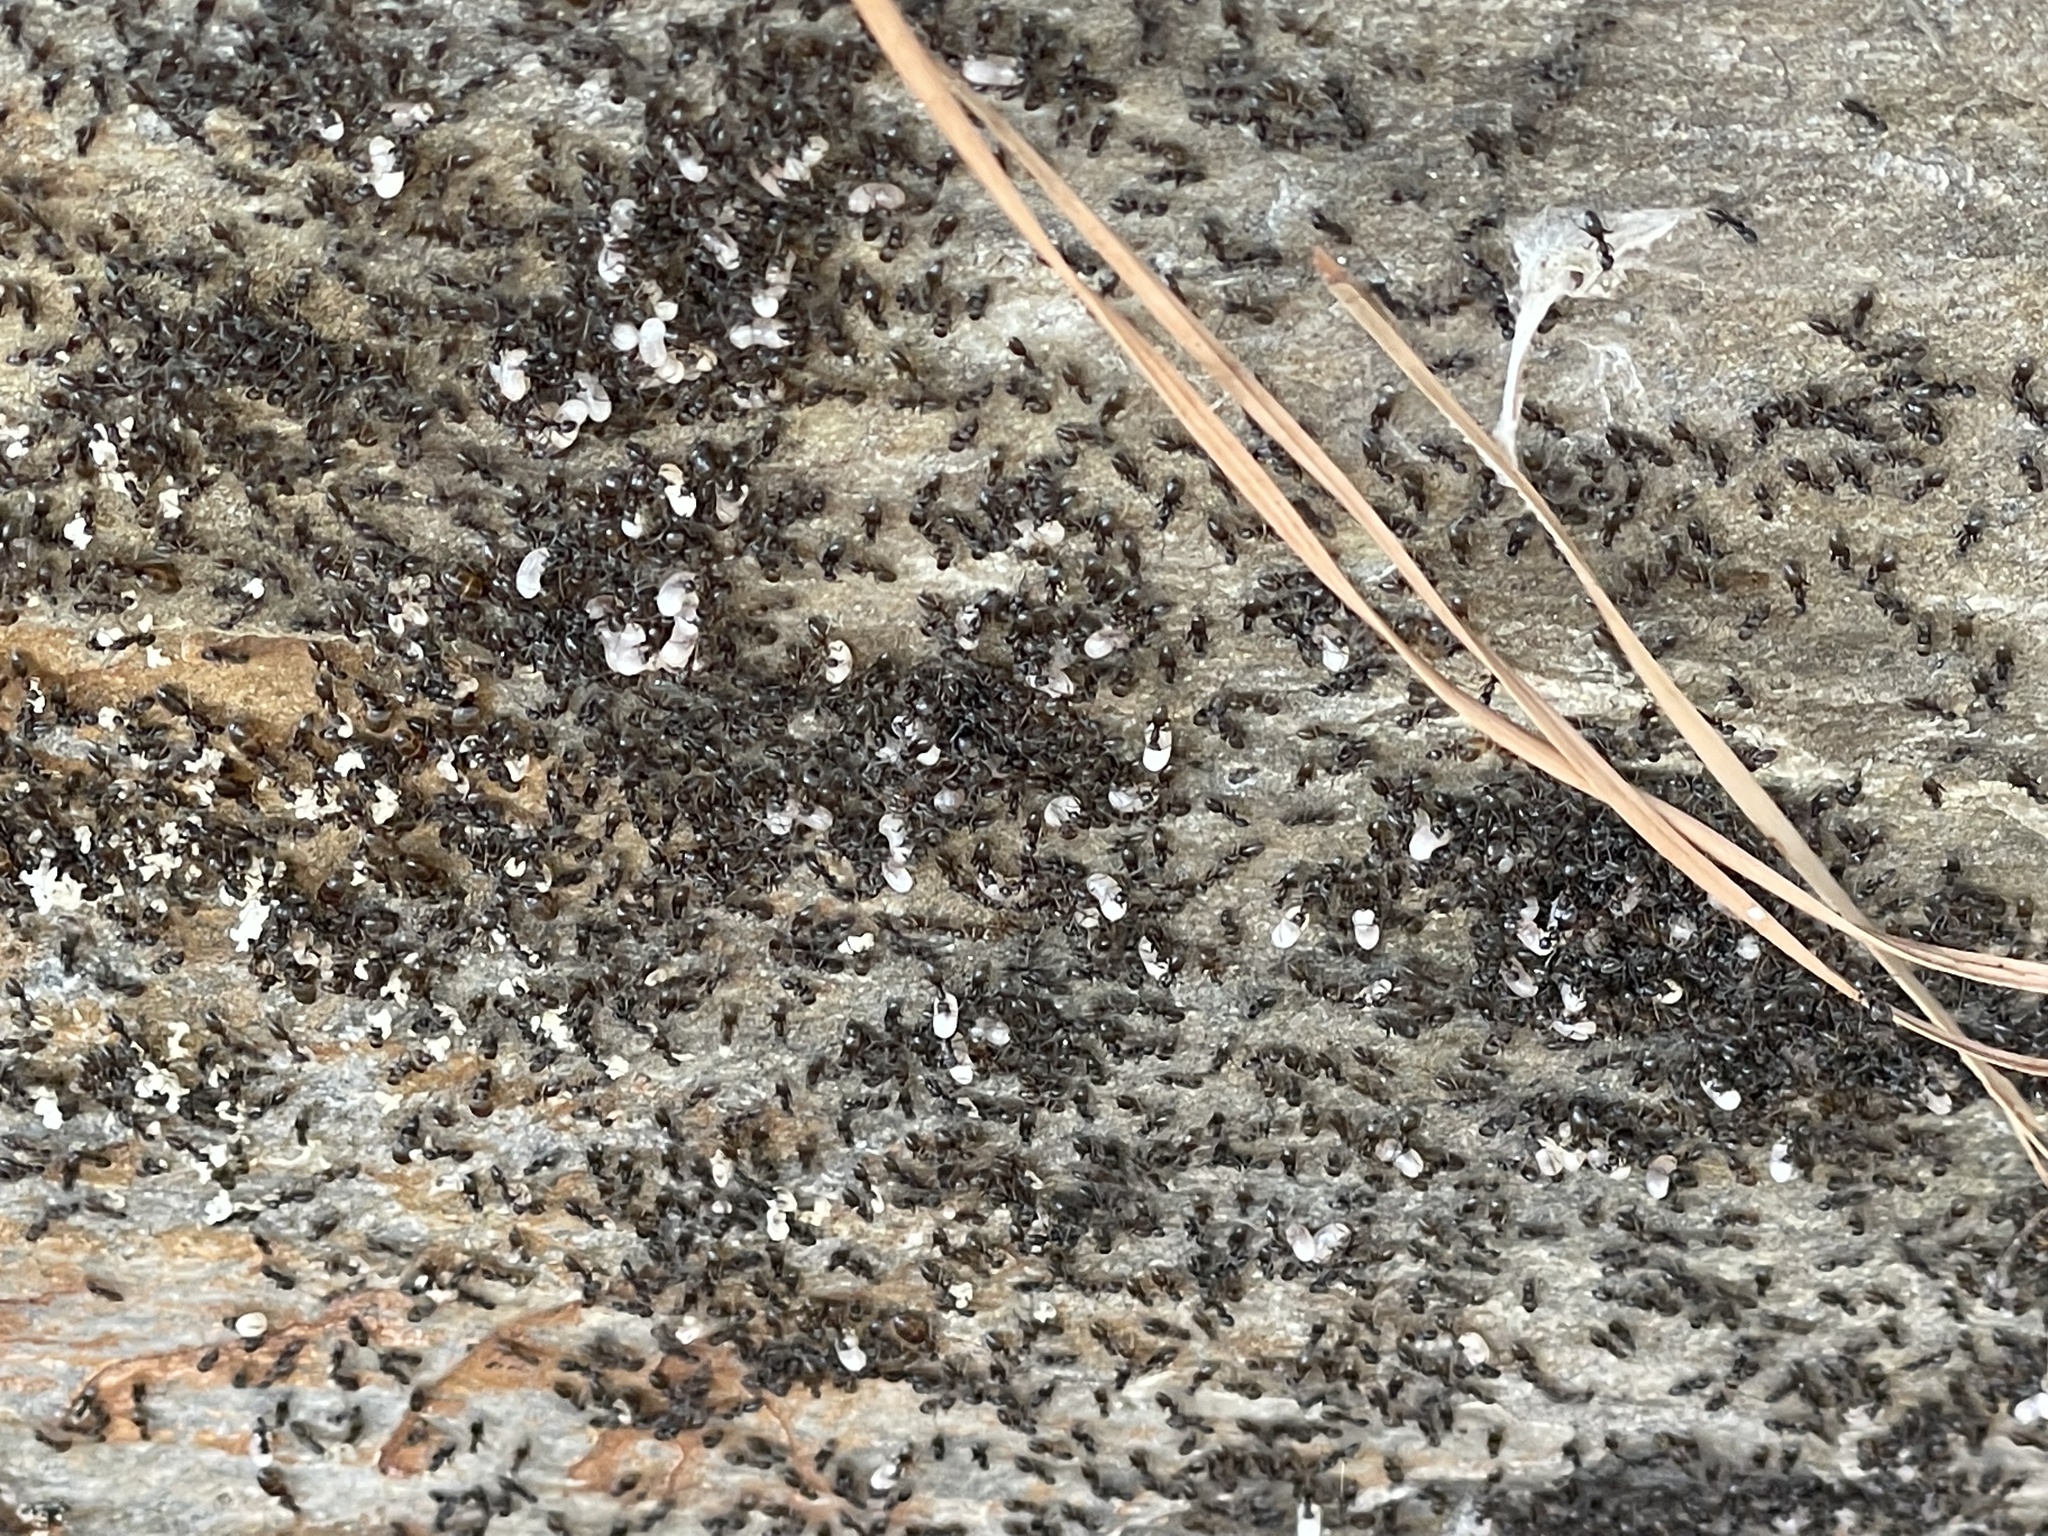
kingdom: Animalia
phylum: Arthropoda
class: Insecta
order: Hymenoptera
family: Formicidae
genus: Tapinoma
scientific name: Tapinoma sessile
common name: Odorous house ant
